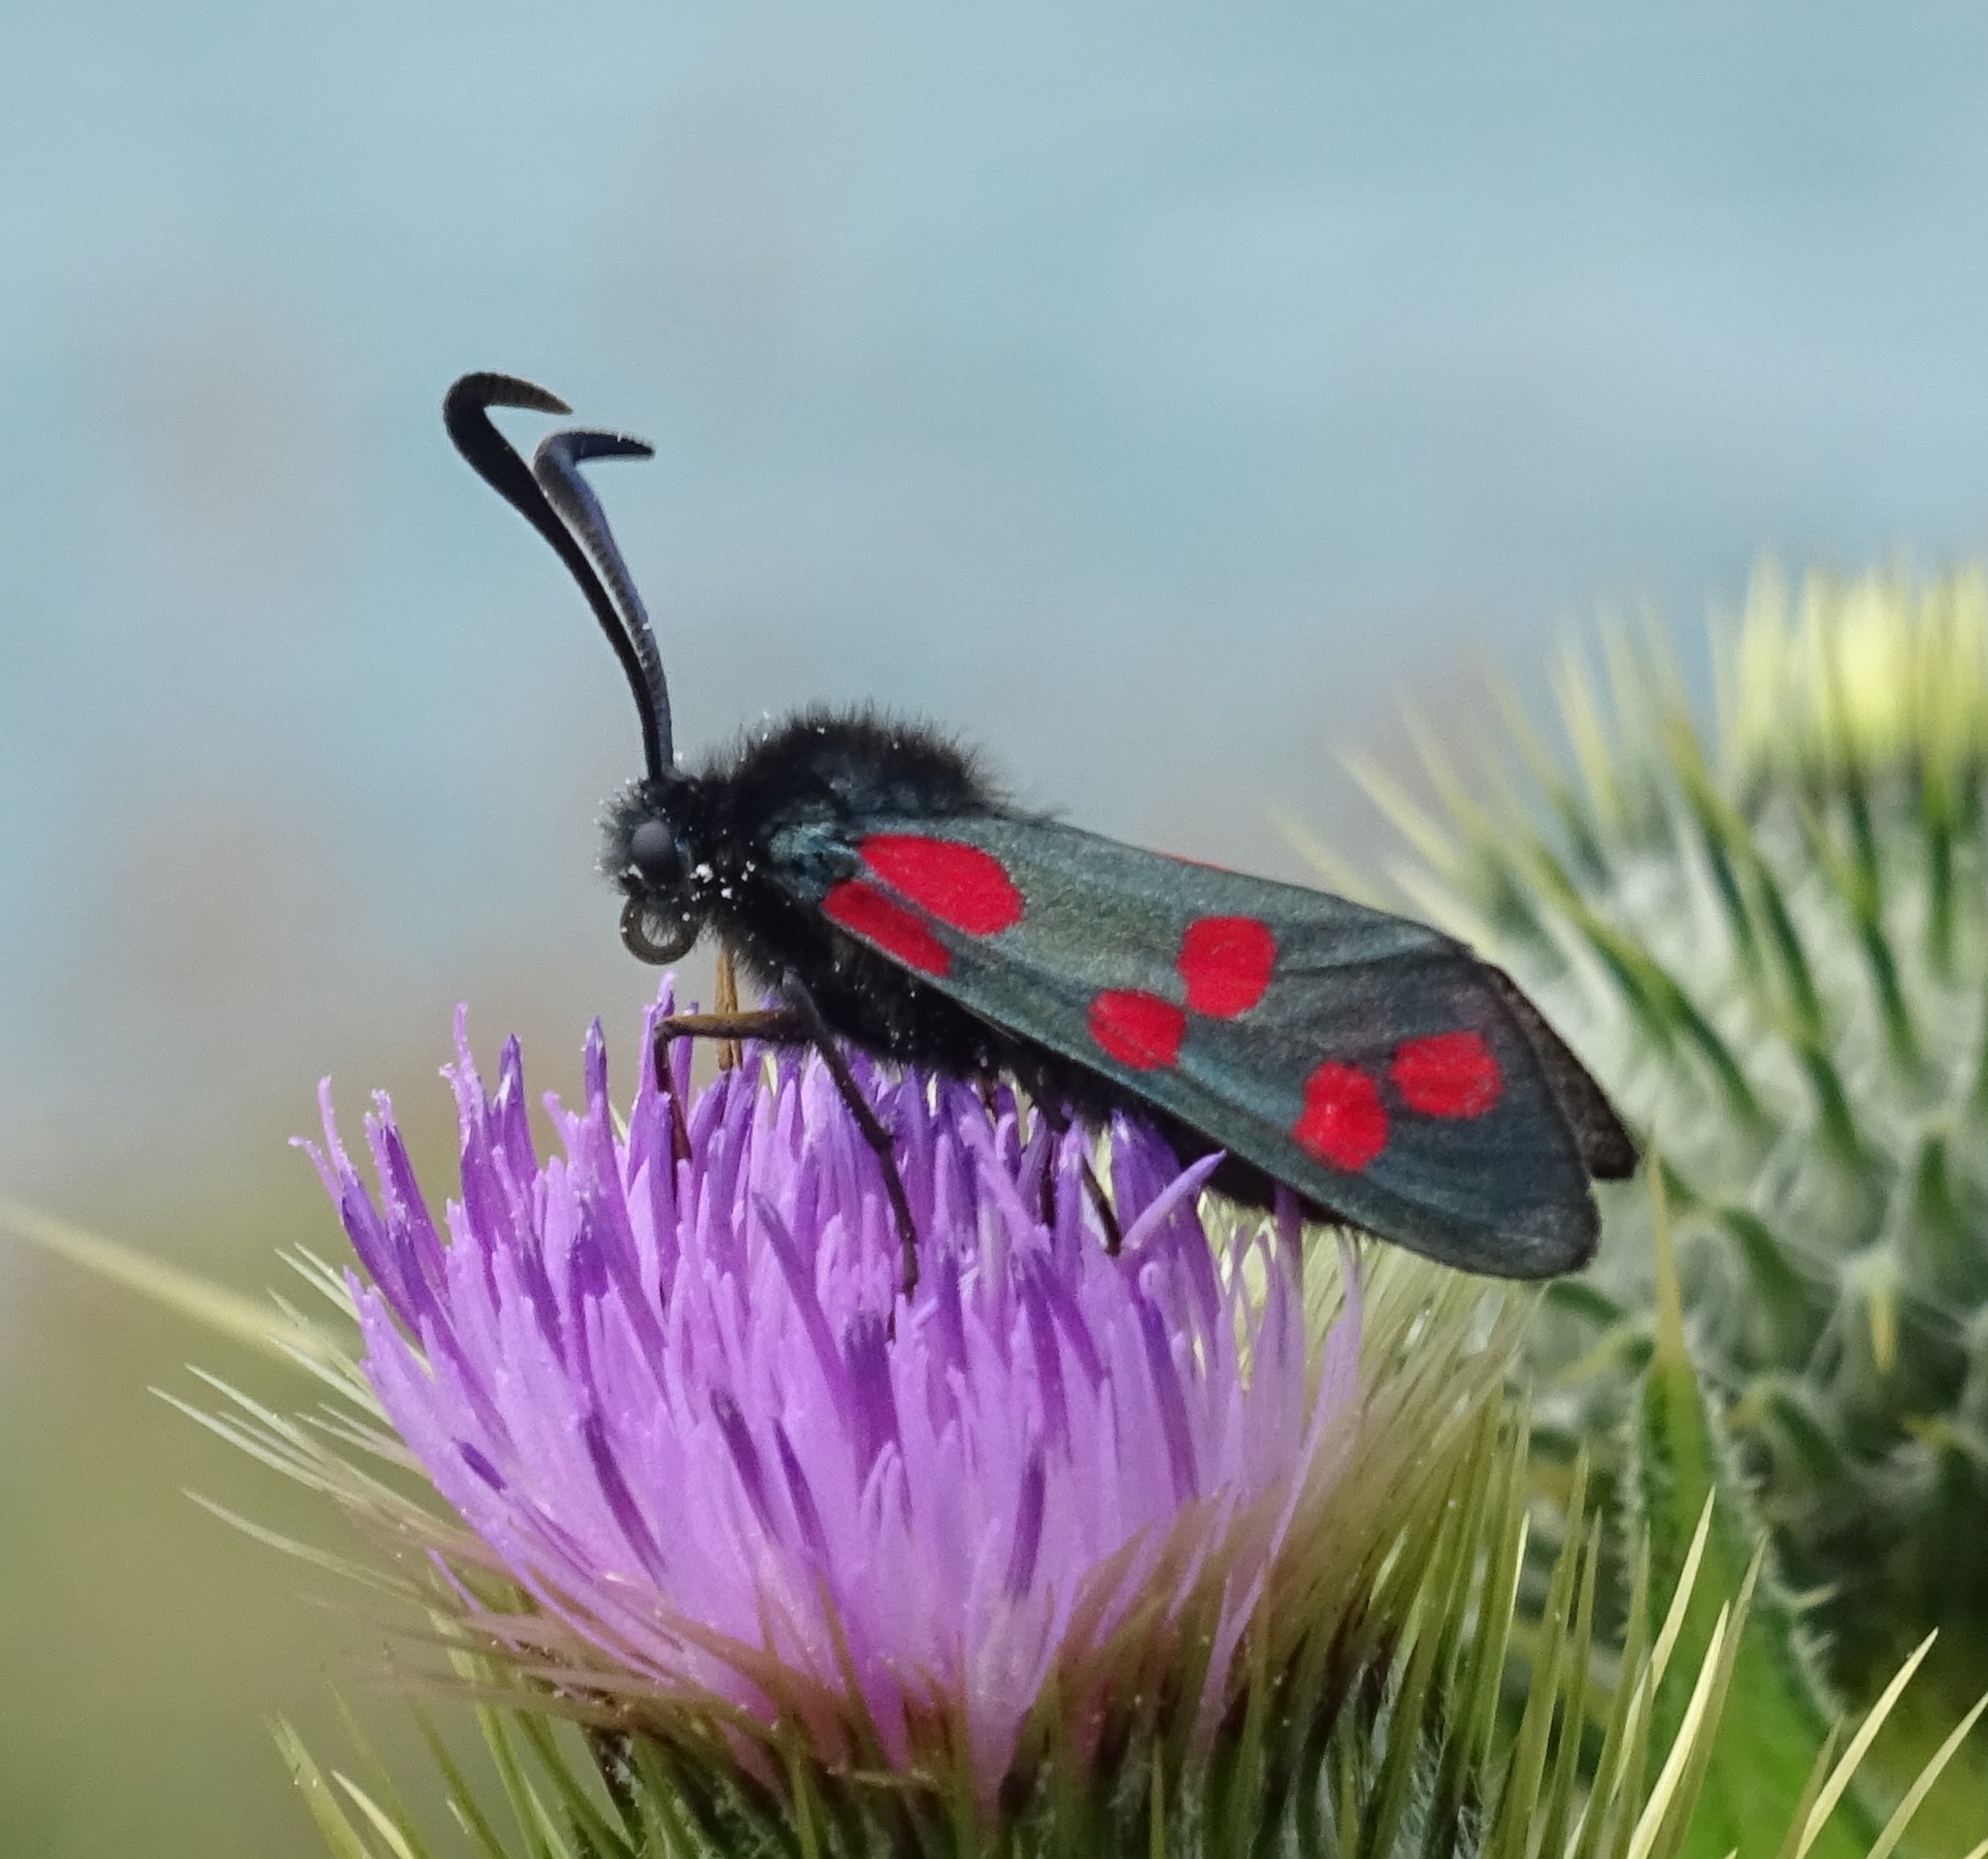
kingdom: Animalia
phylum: Arthropoda
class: Insecta
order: Lepidoptera
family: Zygaenidae
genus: Zygaena
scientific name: Zygaena filipendulae
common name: Six-spot burnet
